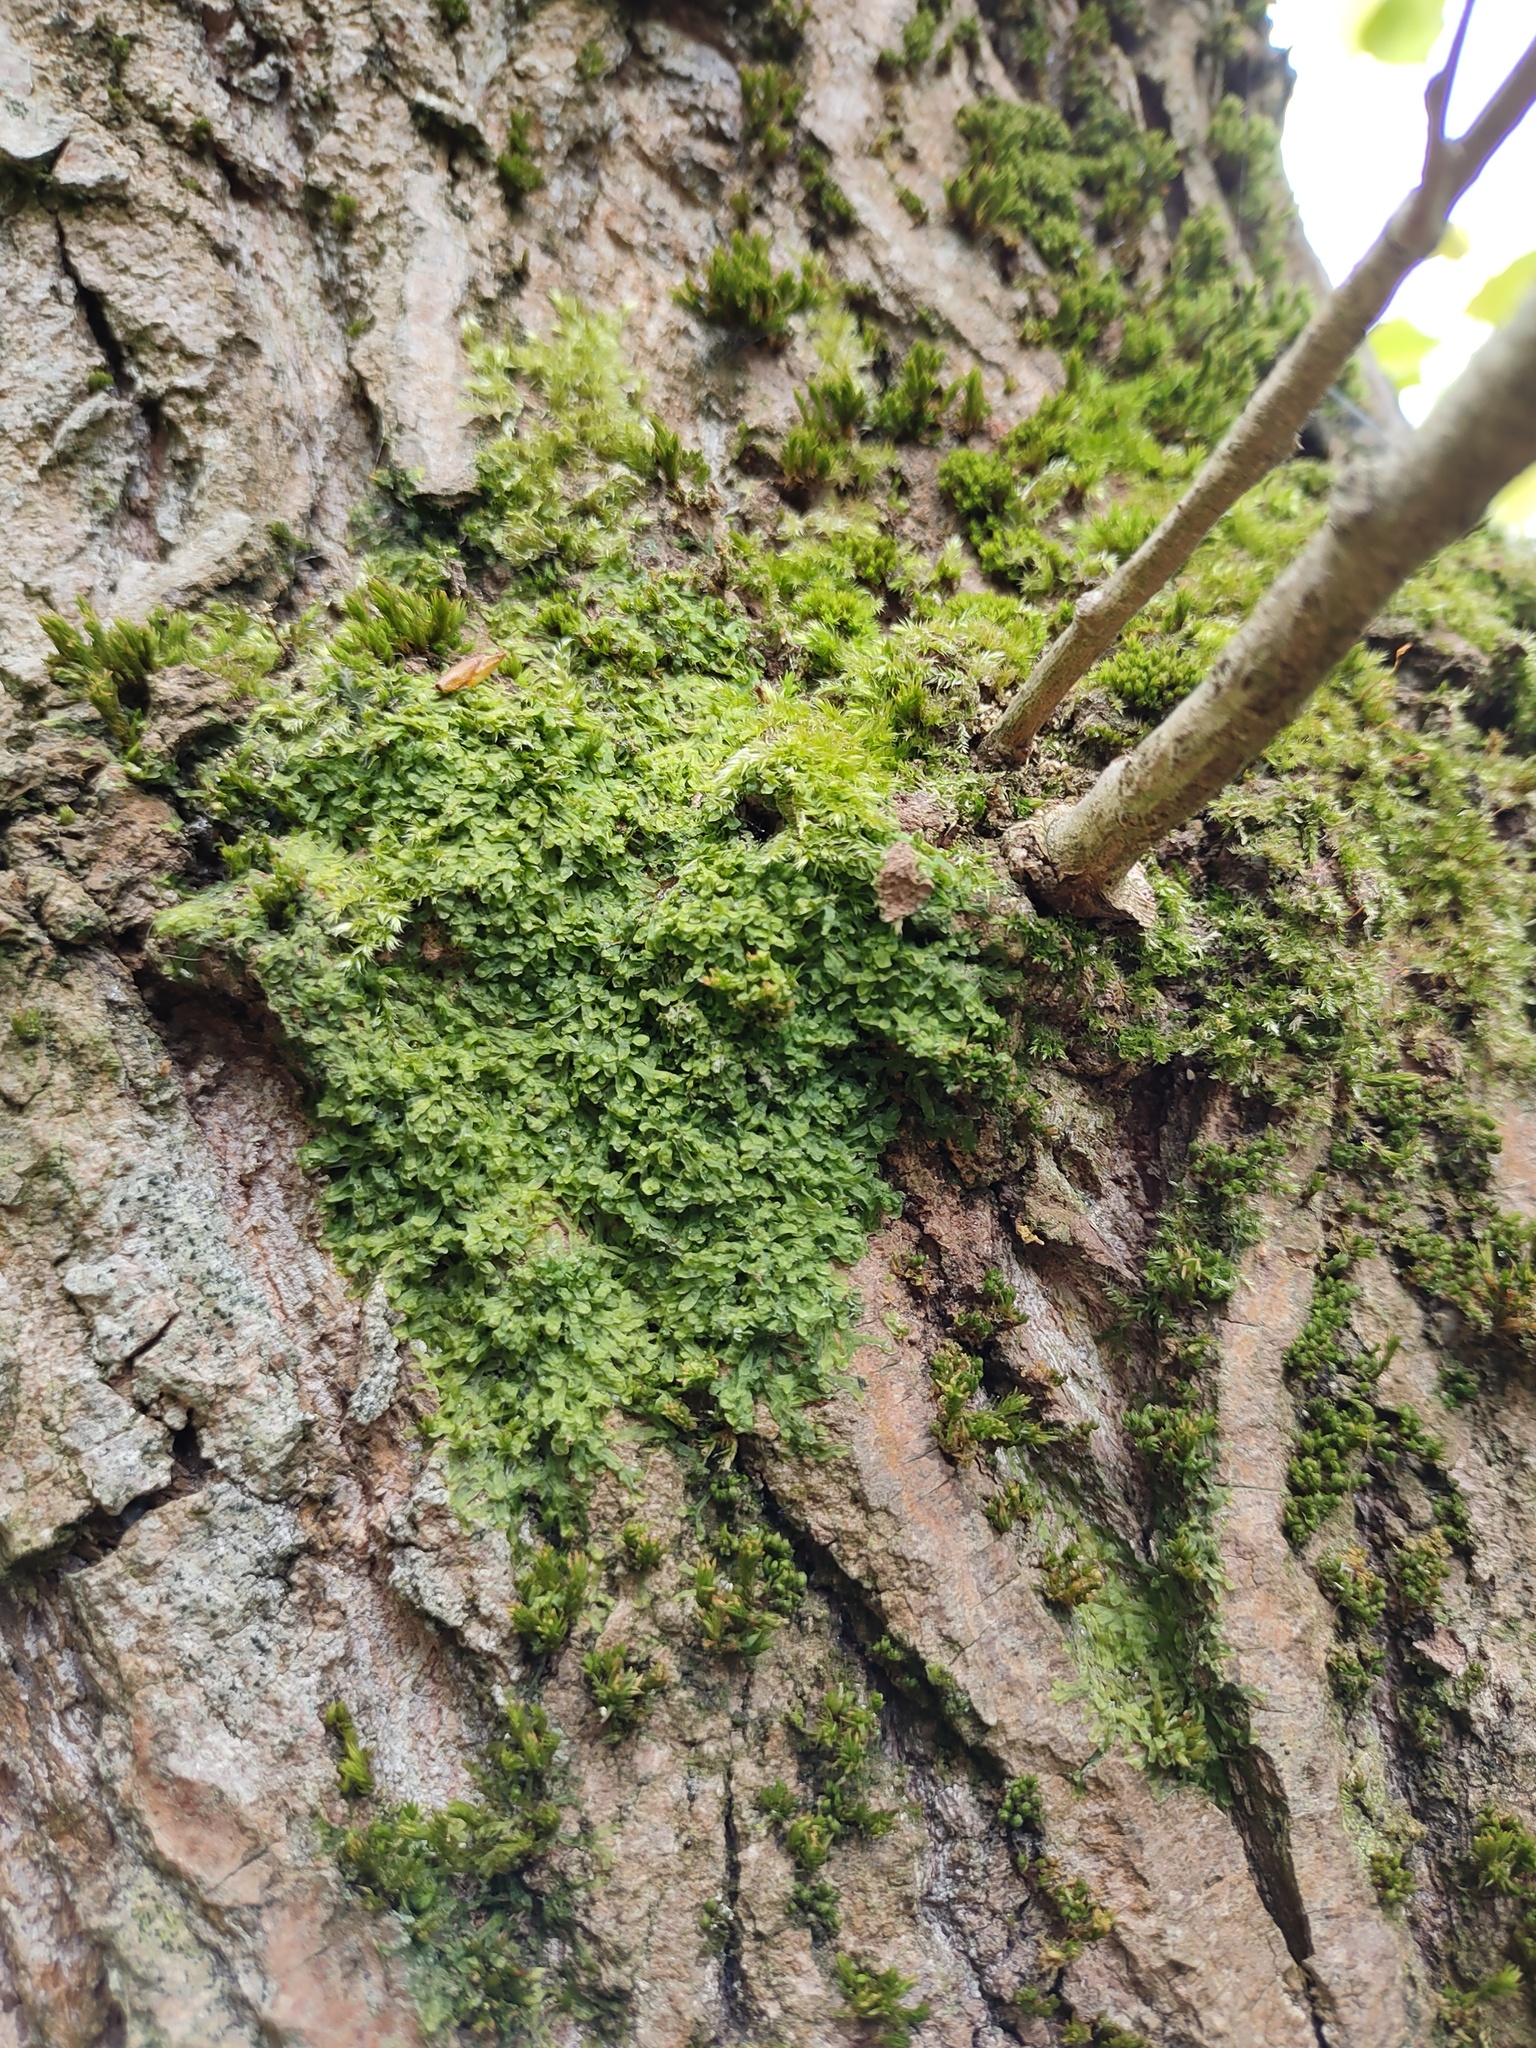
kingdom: Plantae
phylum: Marchantiophyta
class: Jungermanniopsida
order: Porellales
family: Radulaceae
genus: Radula
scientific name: Radula complanata
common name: Flat-leaved scalewort
